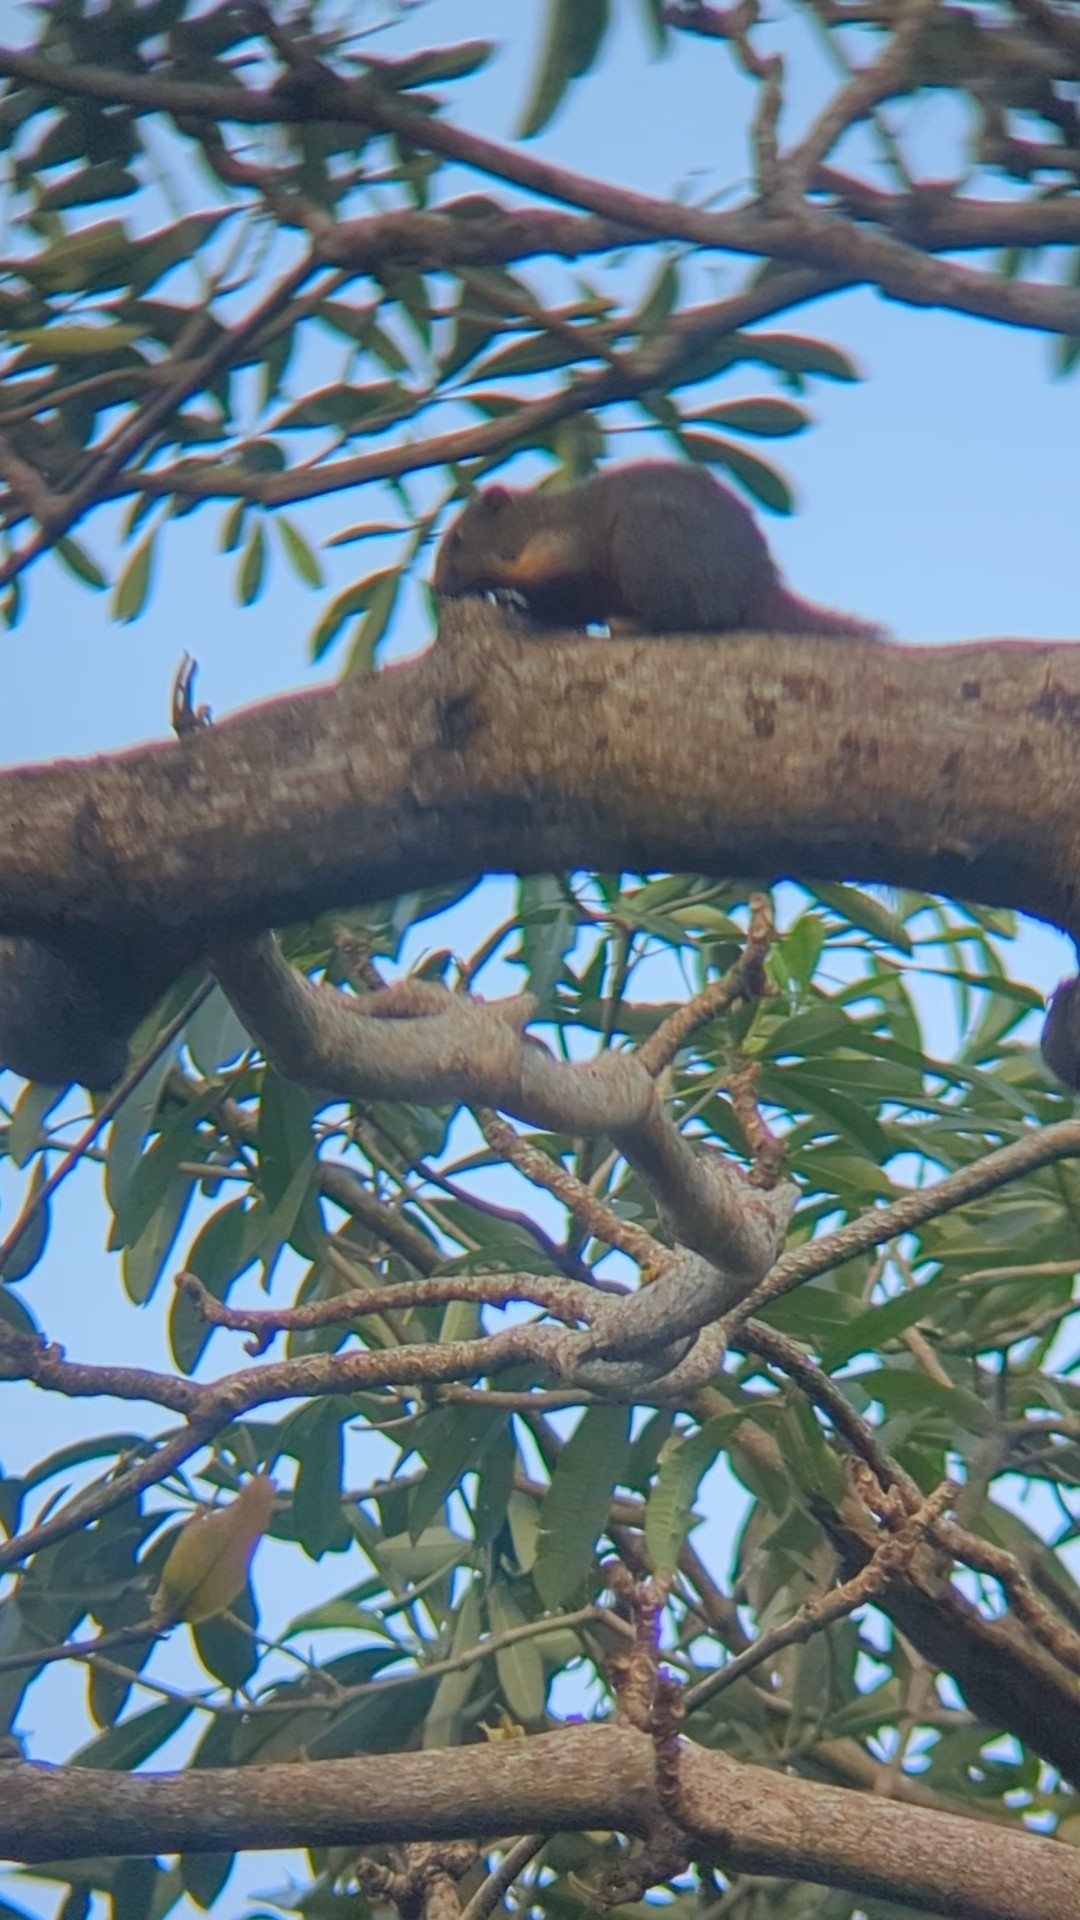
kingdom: Animalia
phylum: Chordata
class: Mammalia
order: Rodentia
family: Sciuridae
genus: Callosciurus
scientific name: Callosciurus erythraeus
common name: Pallas's squirrel
